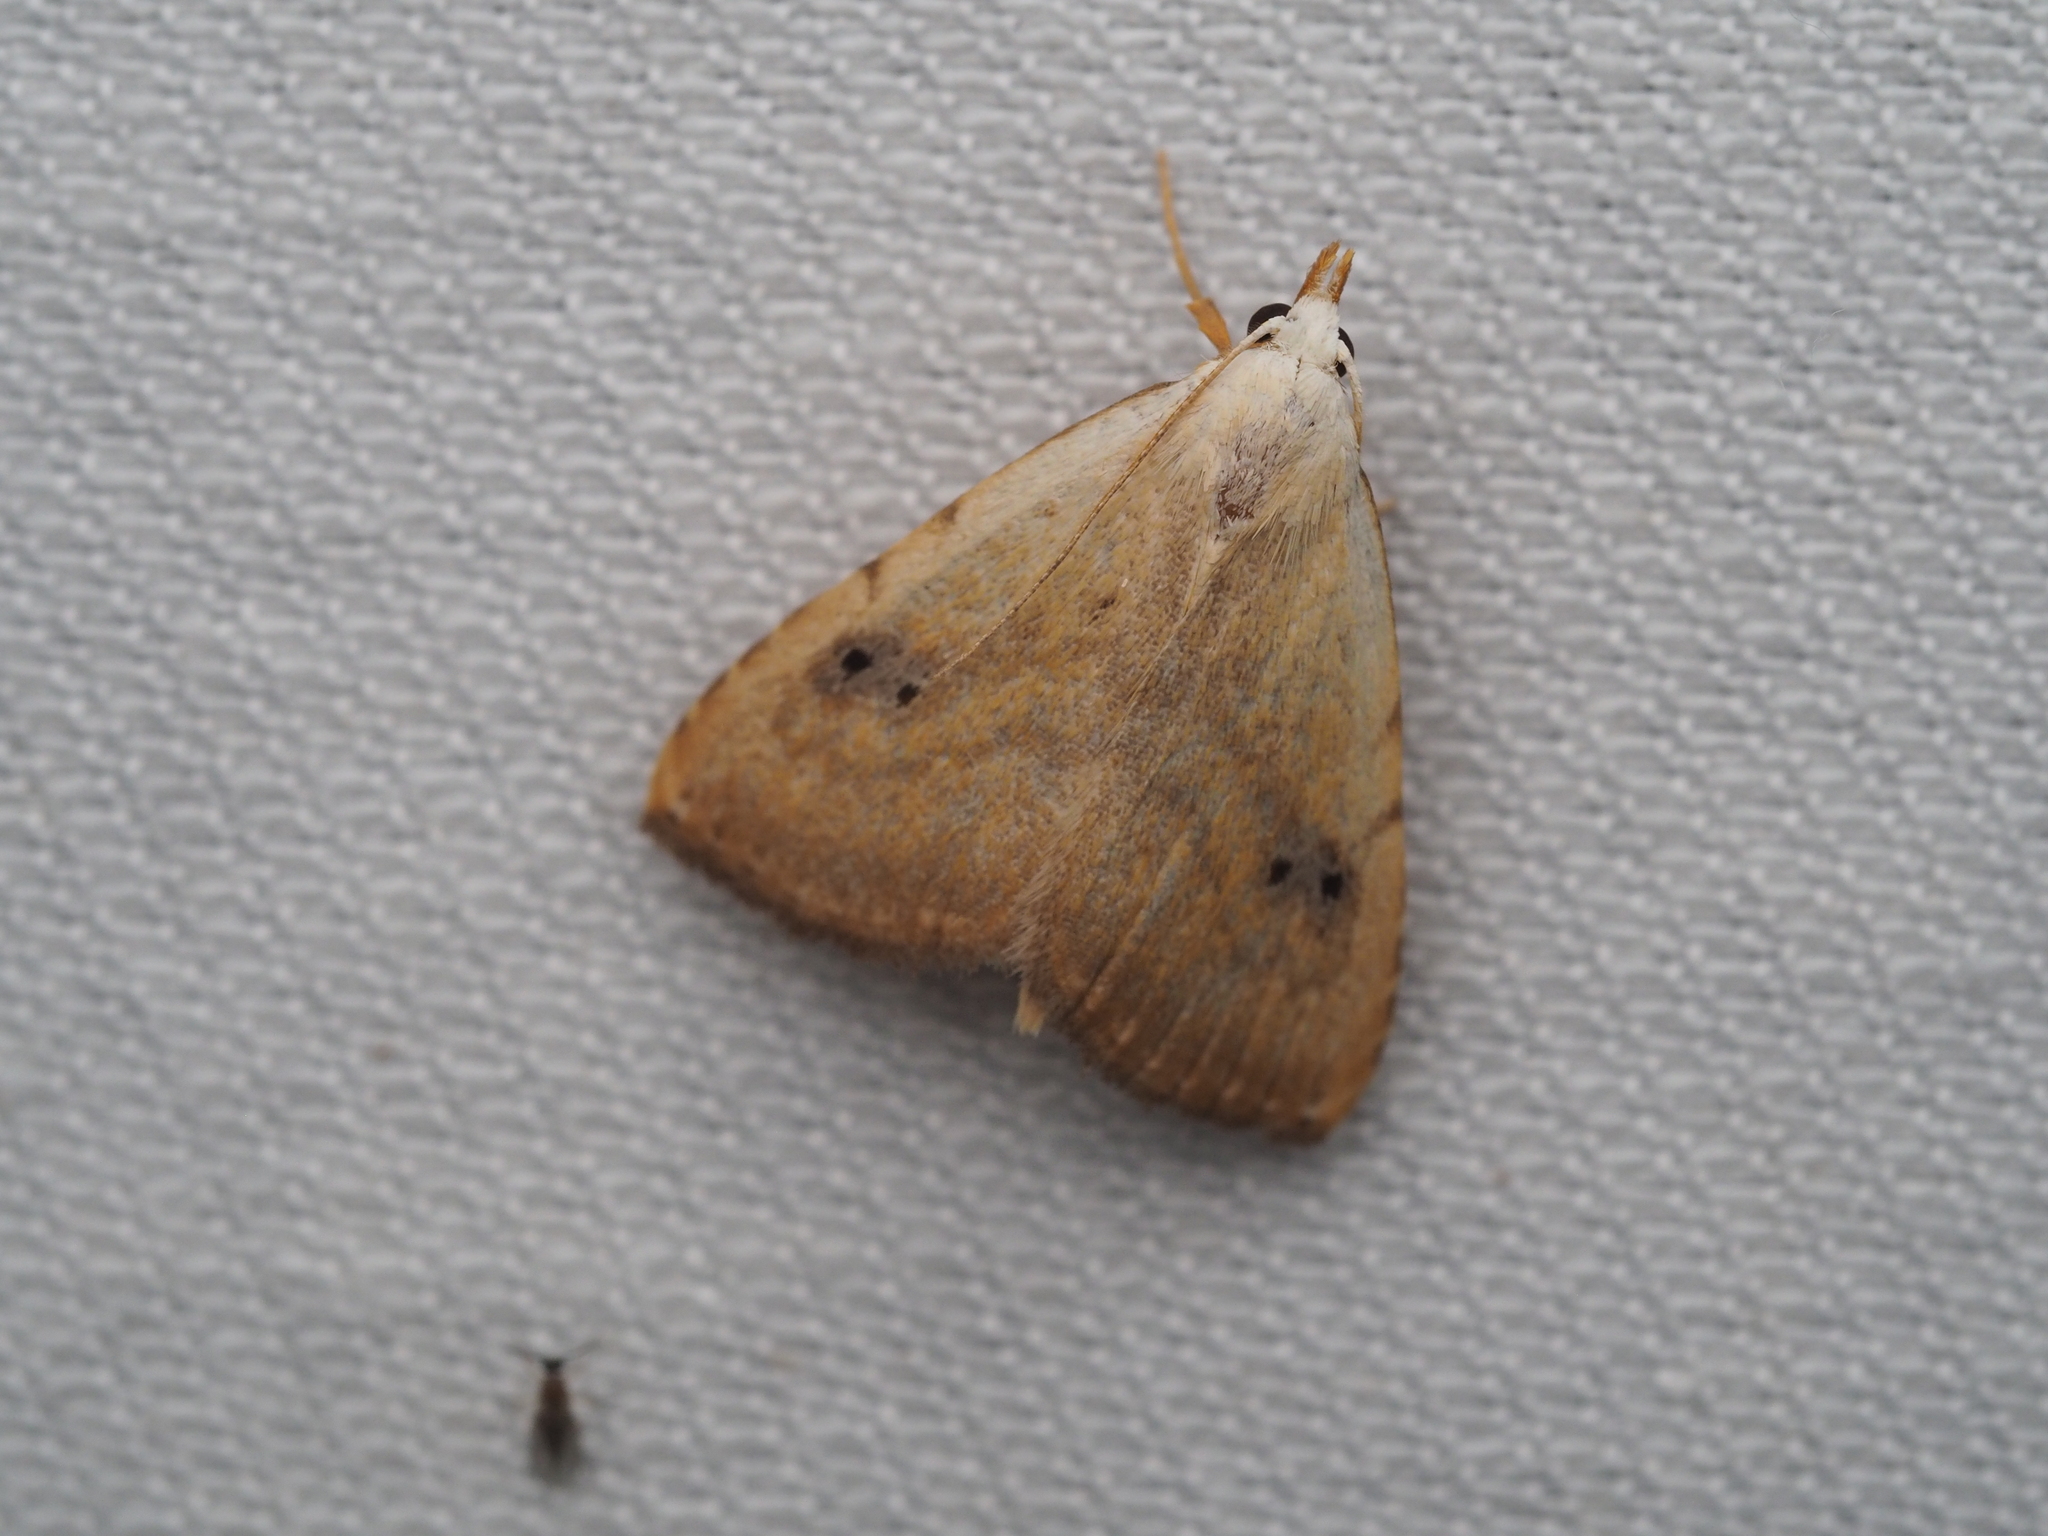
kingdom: Animalia
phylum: Arthropoda
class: Insecta
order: Lepidoptera
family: Erebidae
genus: Rivula
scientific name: Rivula sericealis
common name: Straw dot
